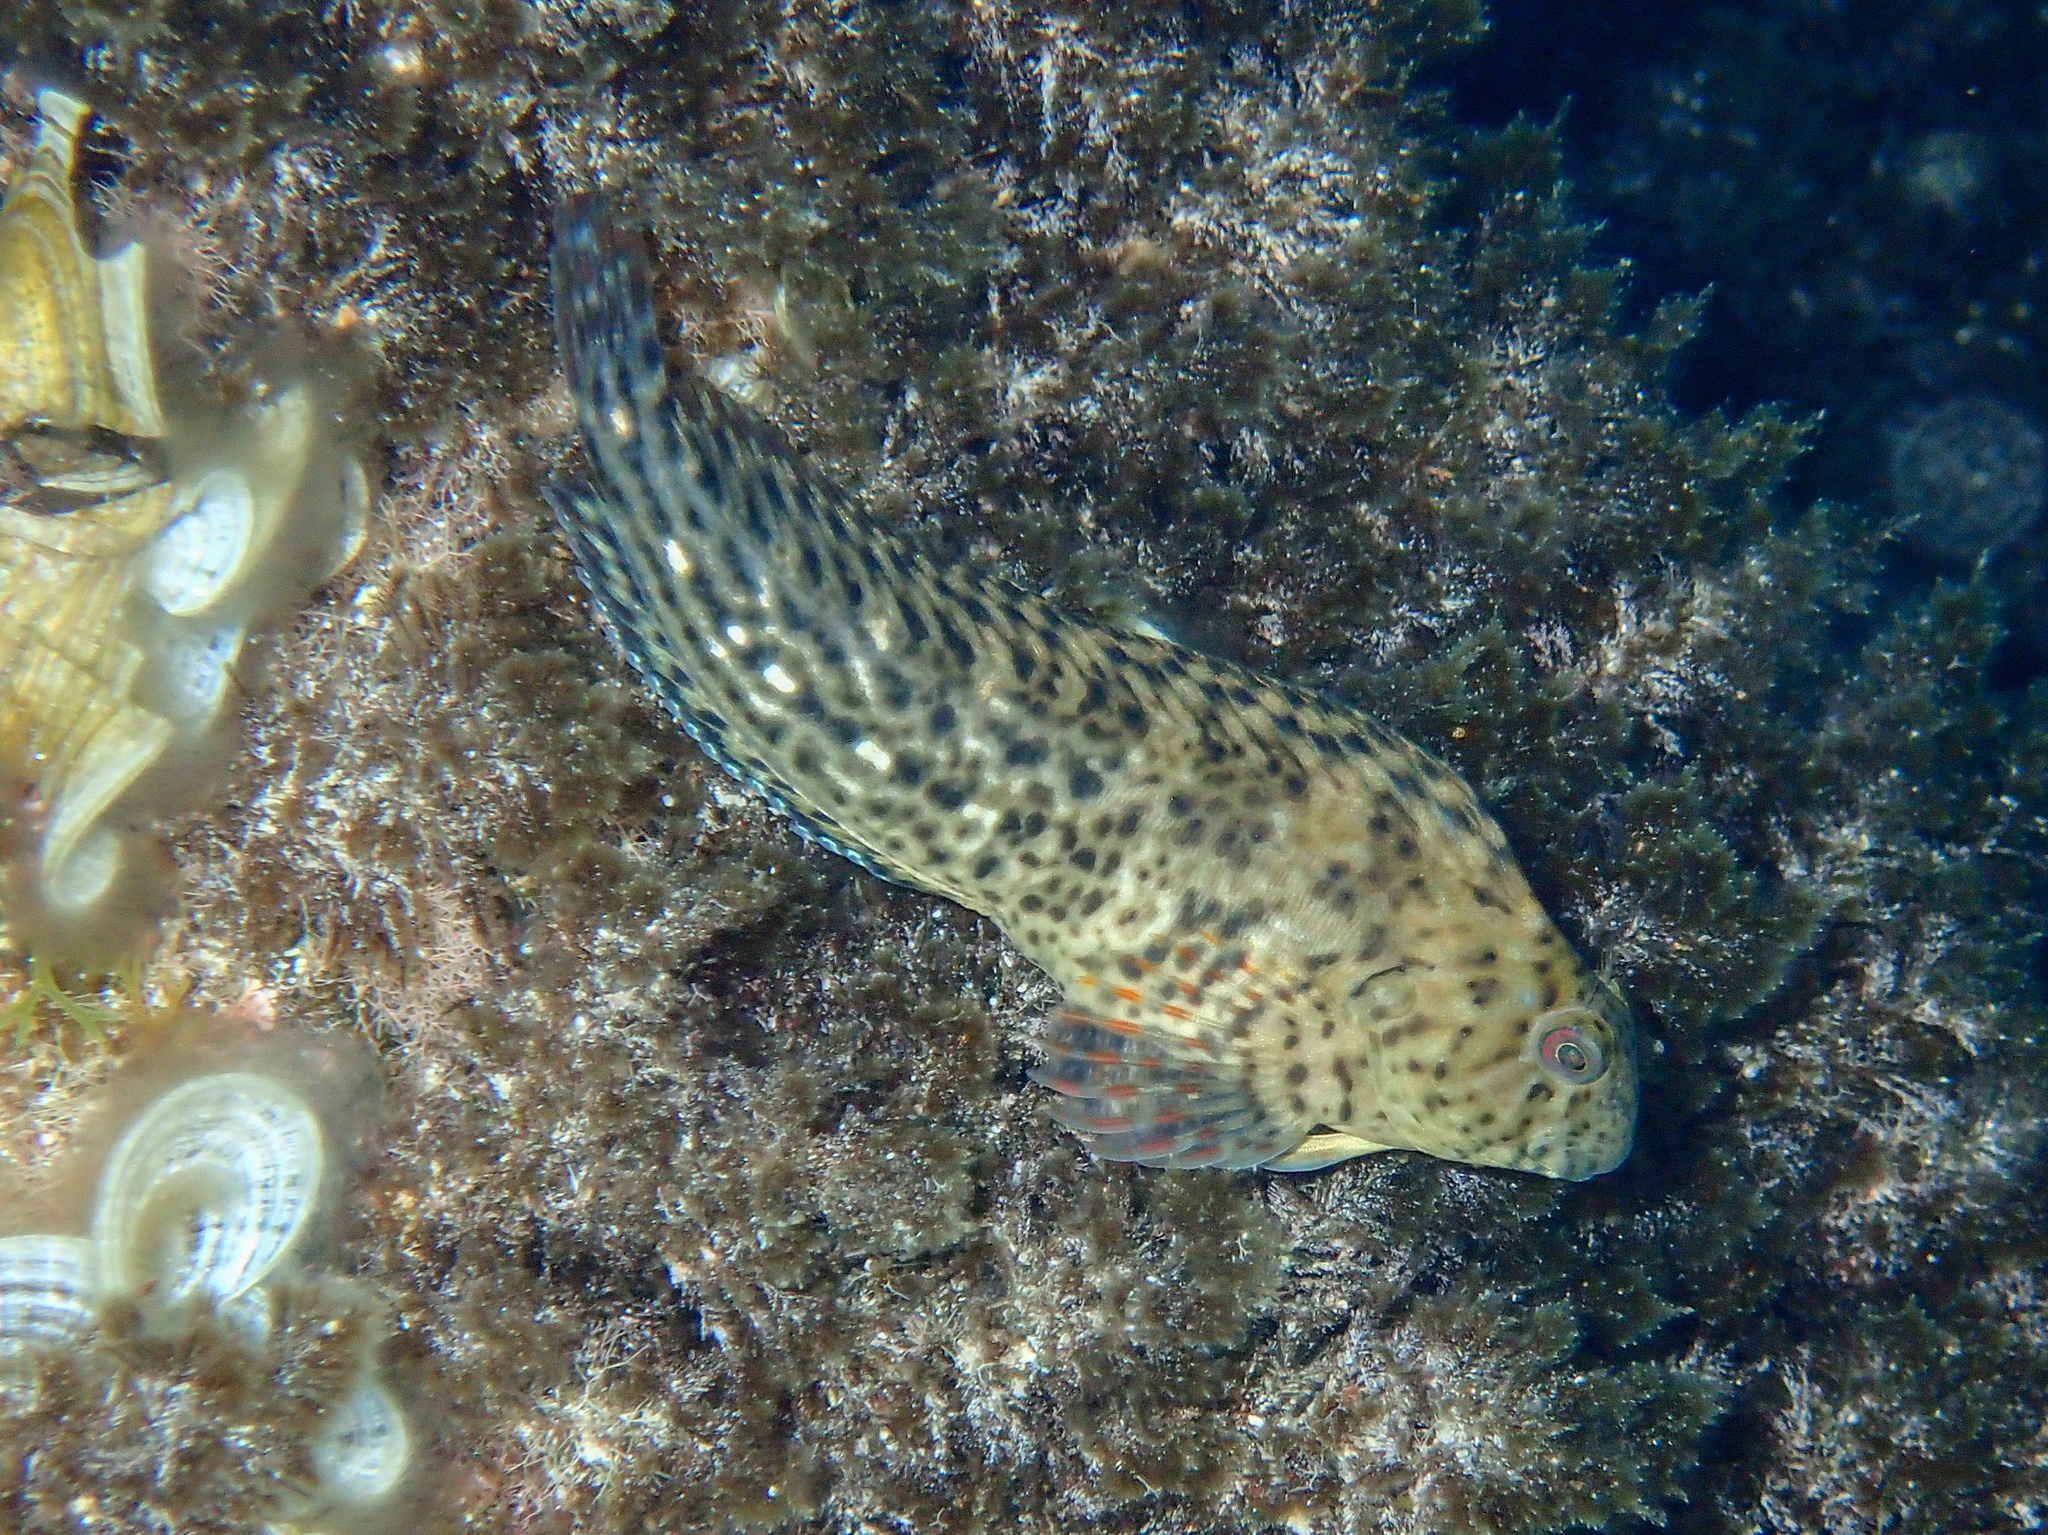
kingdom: Animalia
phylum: Chordata
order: Perciformes
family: Blenniidae
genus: Parablennius
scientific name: Parablennius sanguinolentus
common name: Black sea blenny
